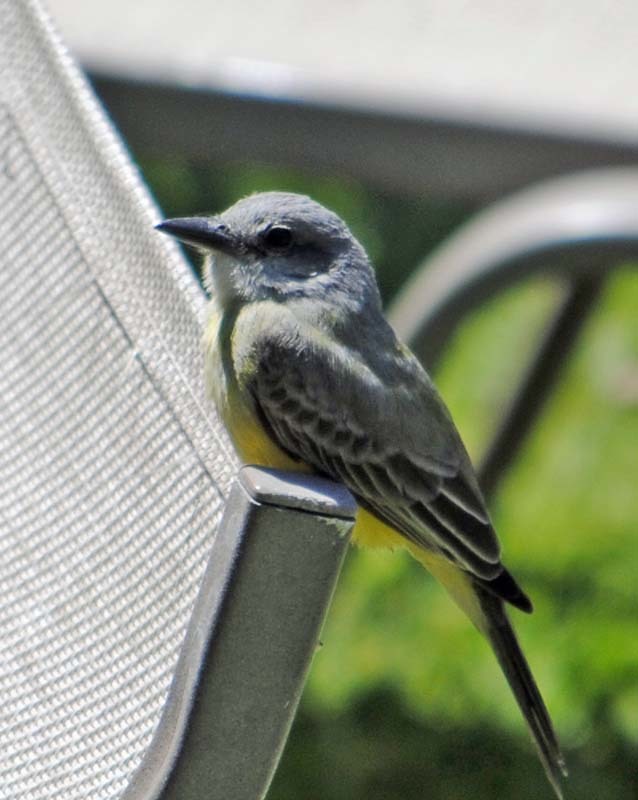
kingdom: Animalia
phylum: Chordata
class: Aves
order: Passeriformes
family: Tyrannidae
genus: Tyrannus
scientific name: Tyrannus melancholicus
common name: Tropical kingbird
